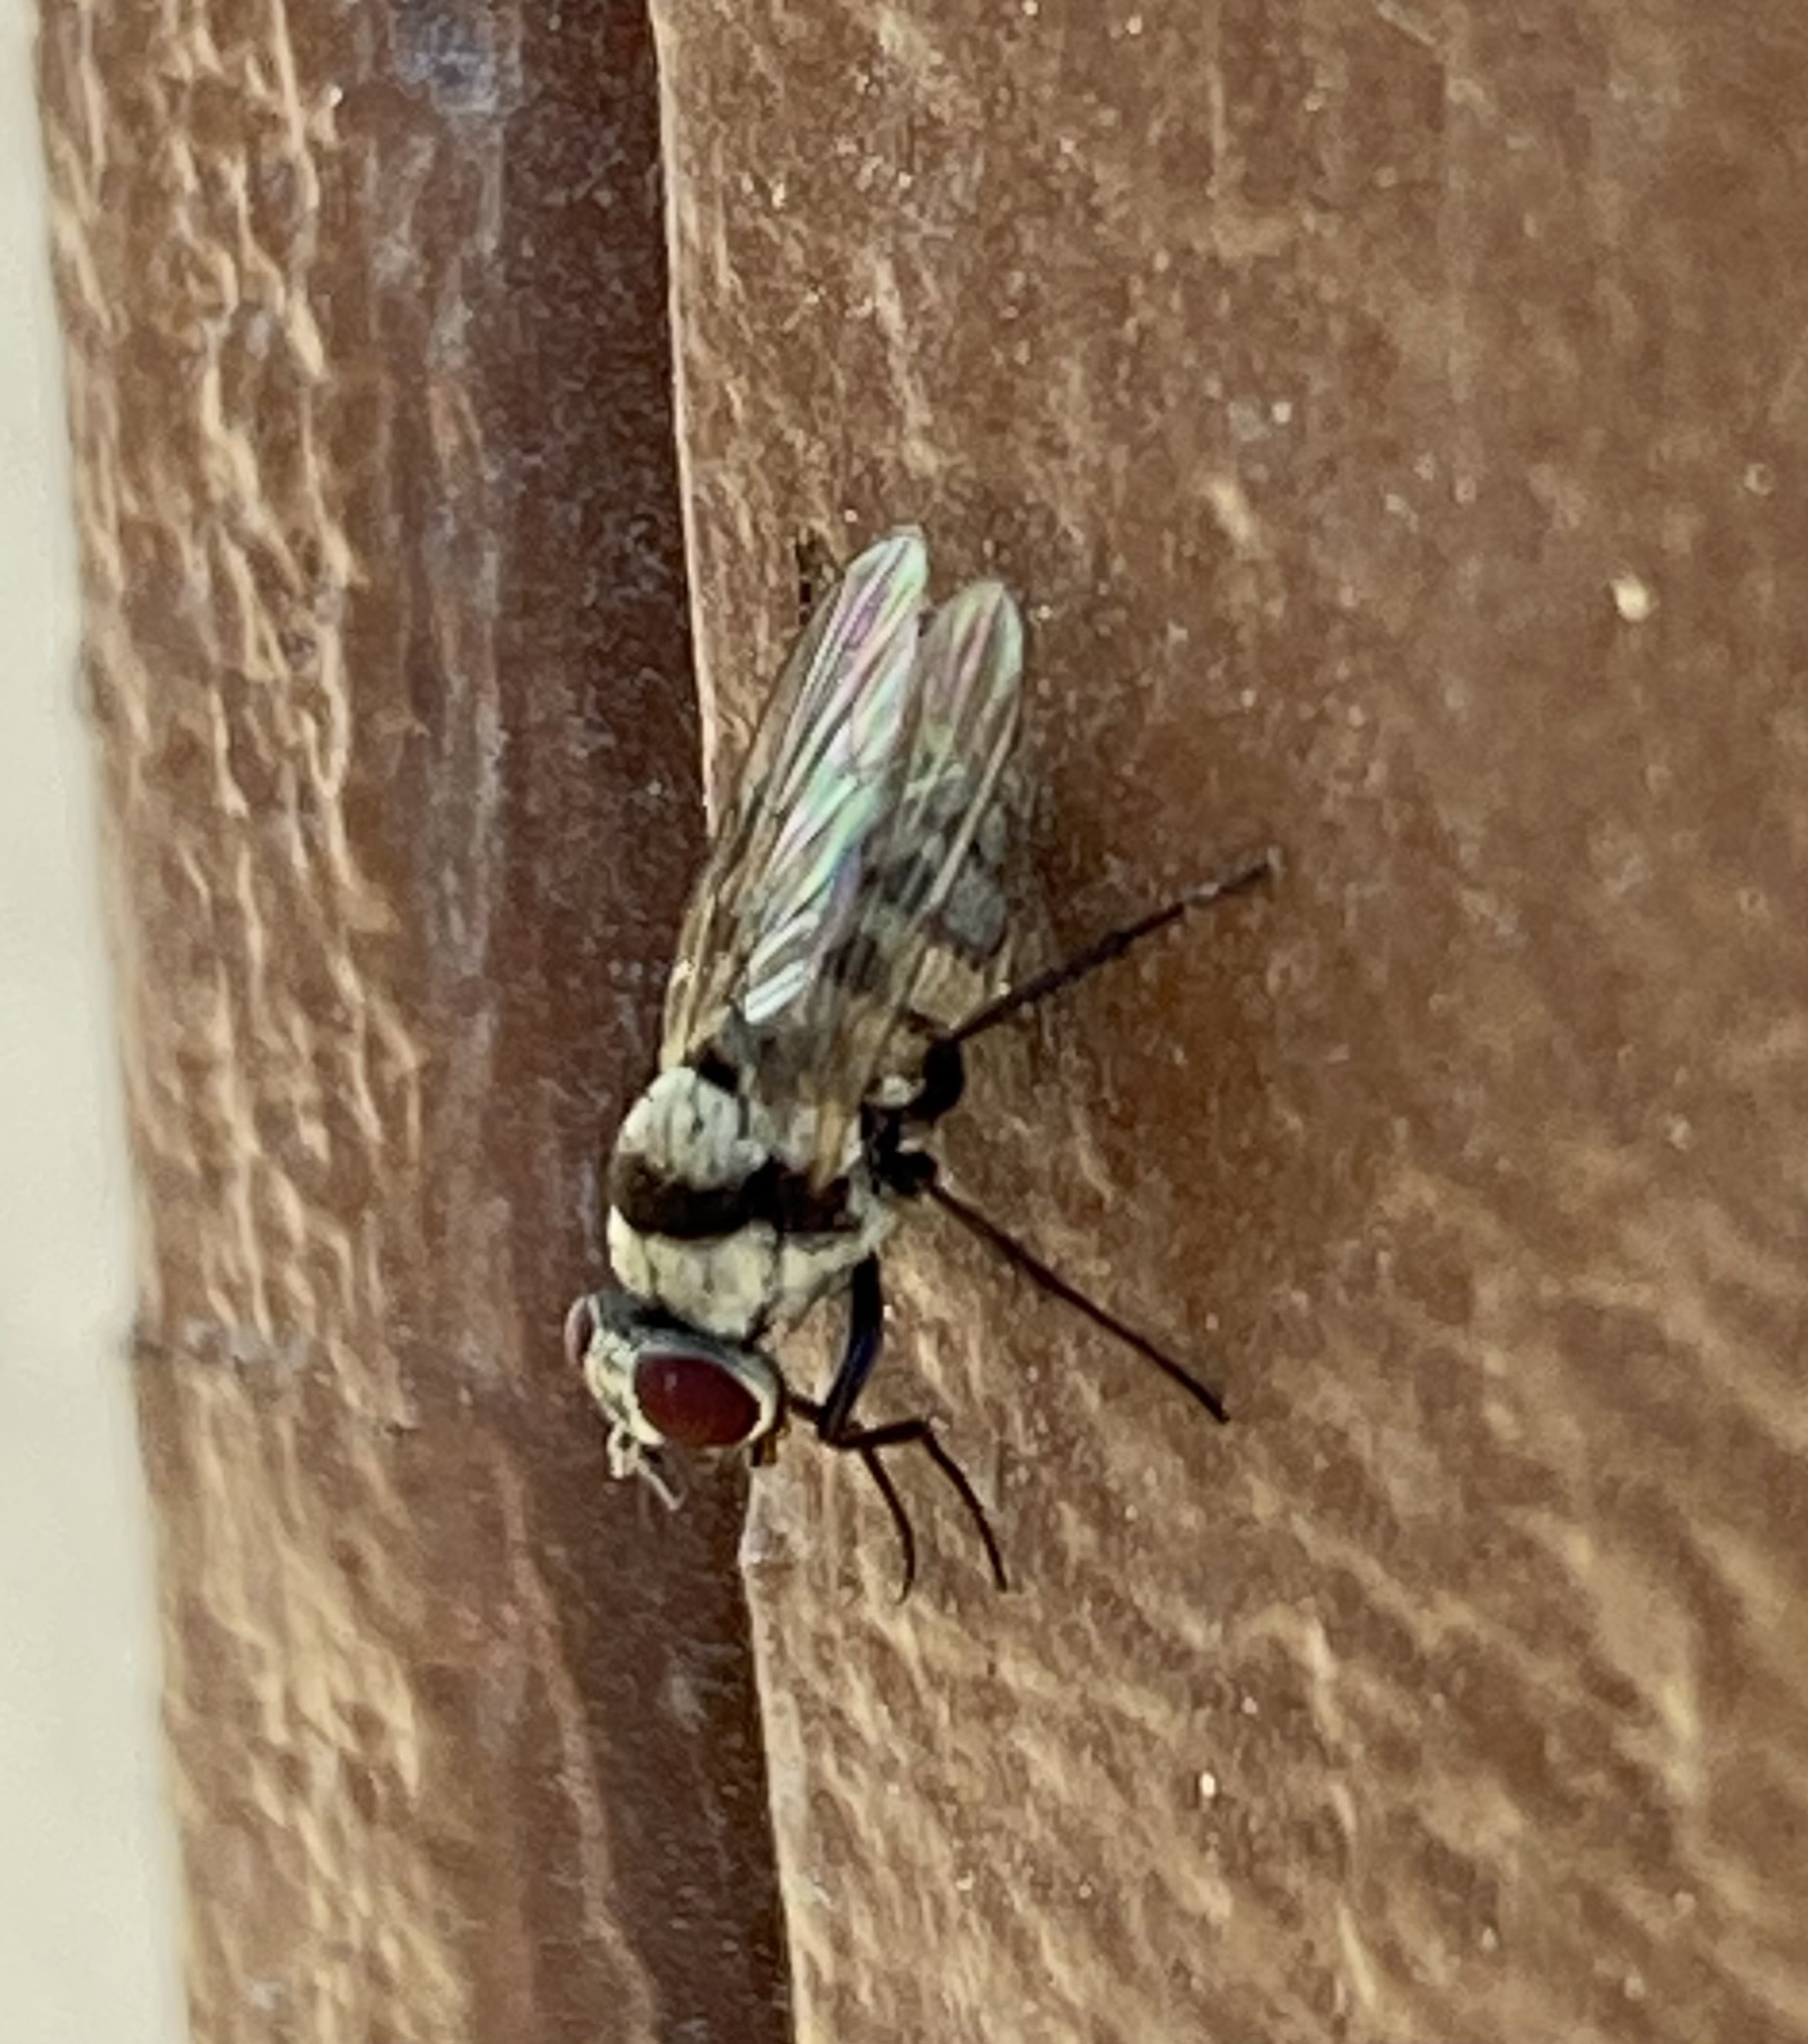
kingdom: Animalia
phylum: Arthropoda
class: Insecta
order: Diptera
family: Anthomyiidae
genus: Anthomyia
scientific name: Anthomyia illocata
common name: Fly
